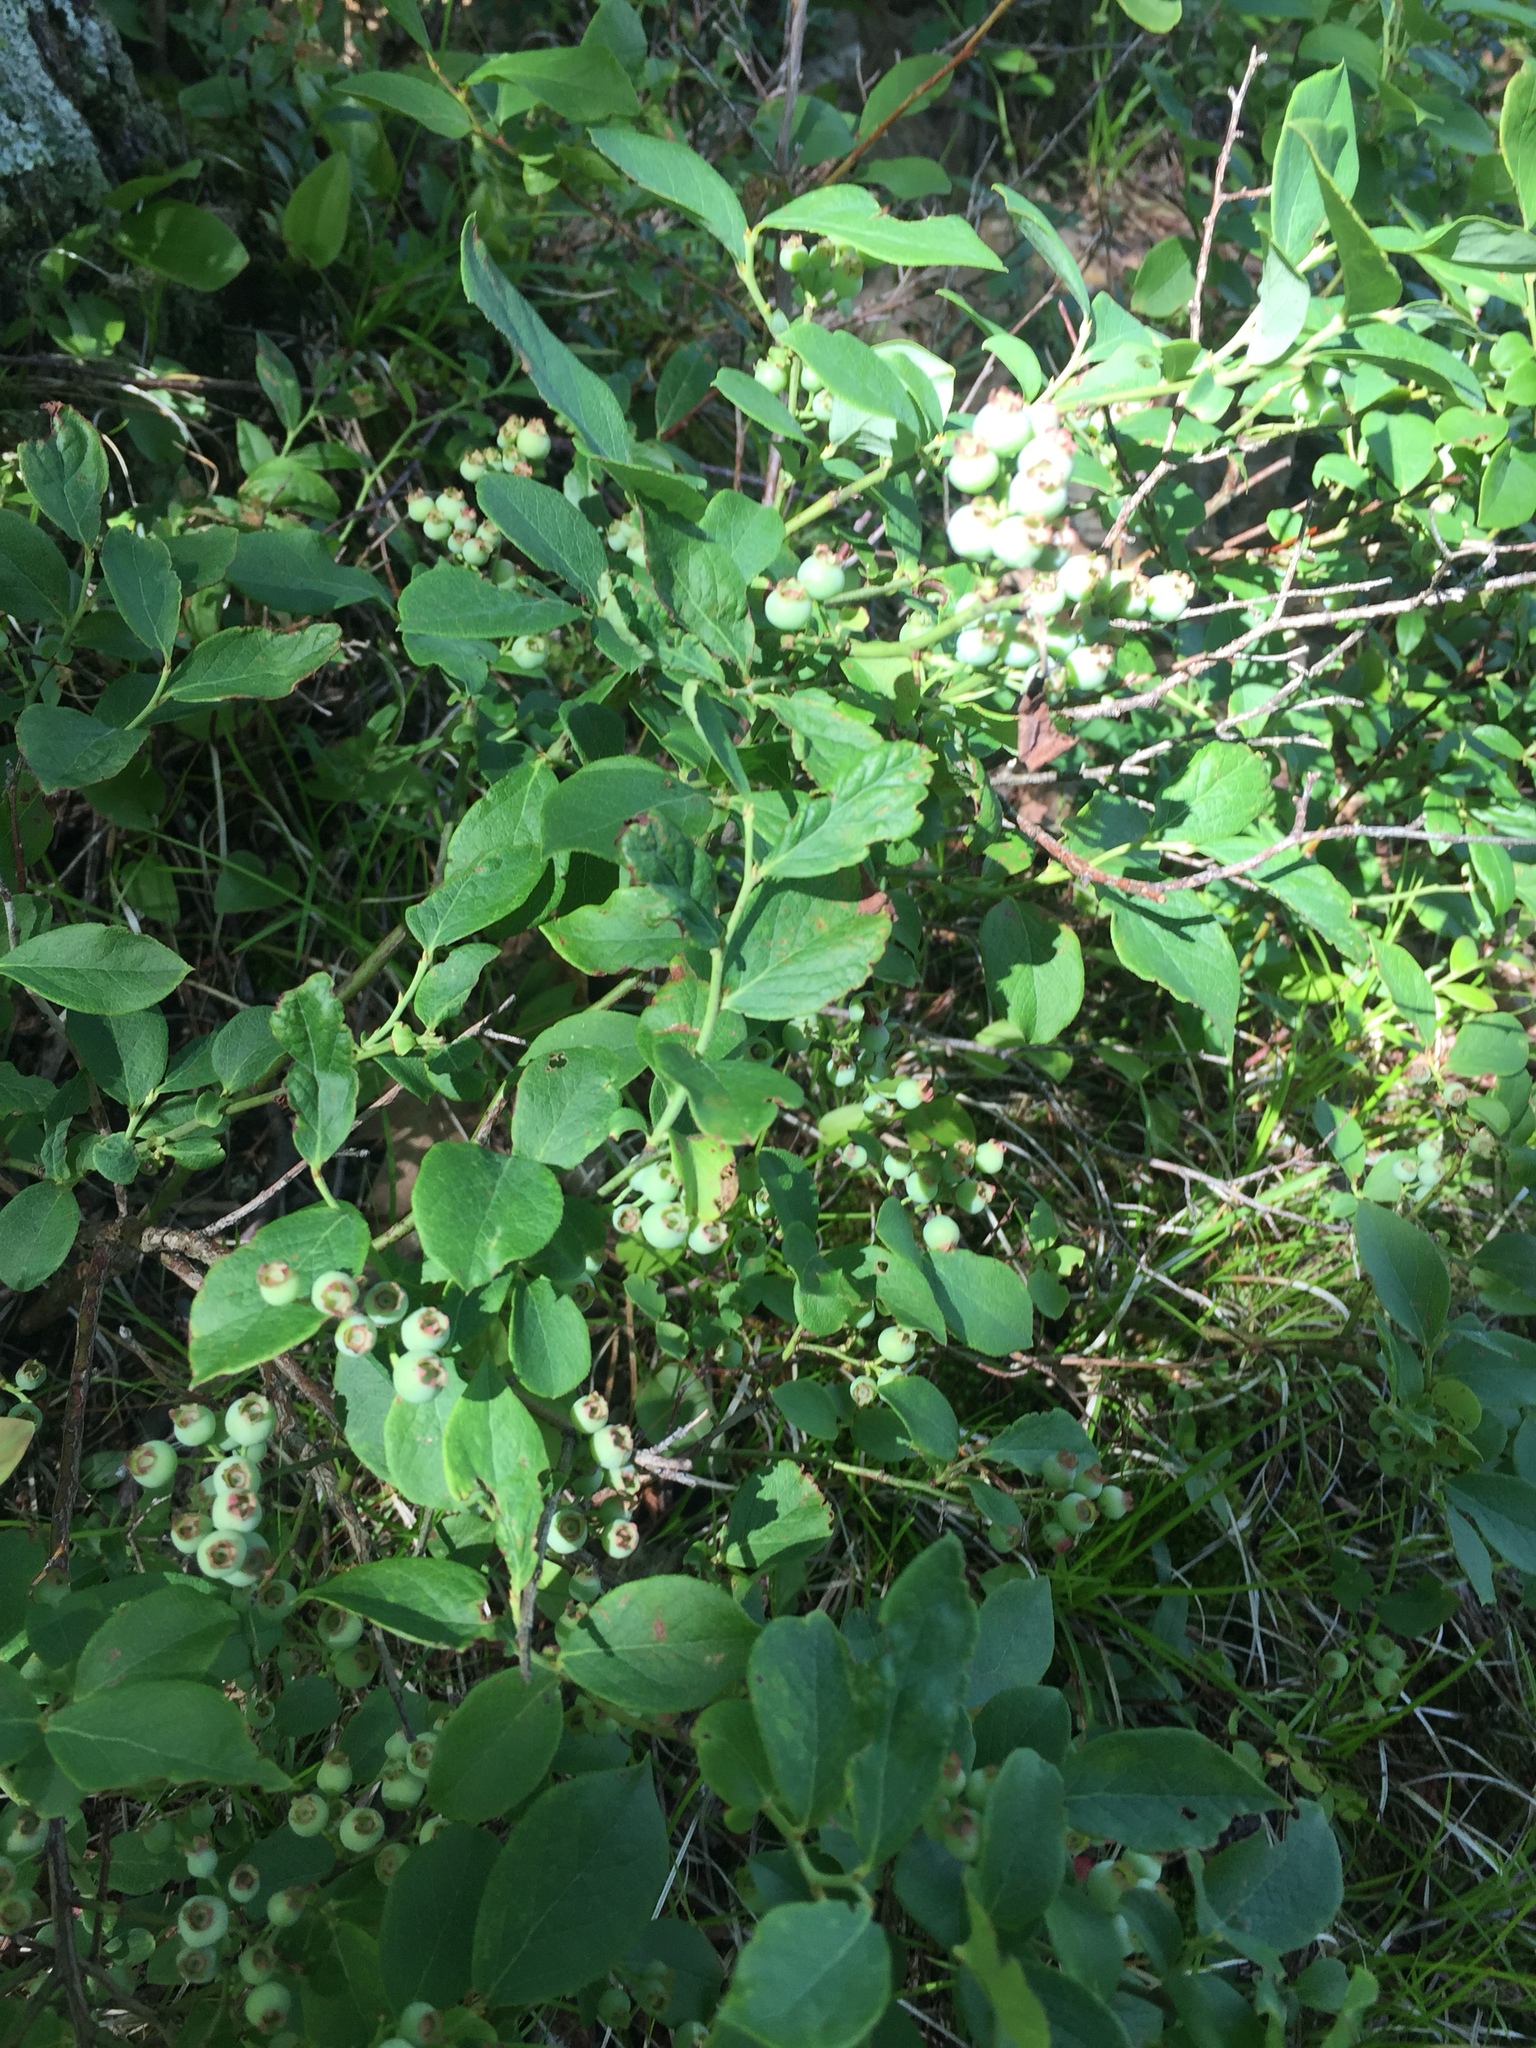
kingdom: Plantae
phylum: Tracheophyta
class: Magnoliopsida
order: Ericales
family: Ericaceae
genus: Vaccinium
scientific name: Vaccinium angustifolium
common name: Early lowbush blueberry
